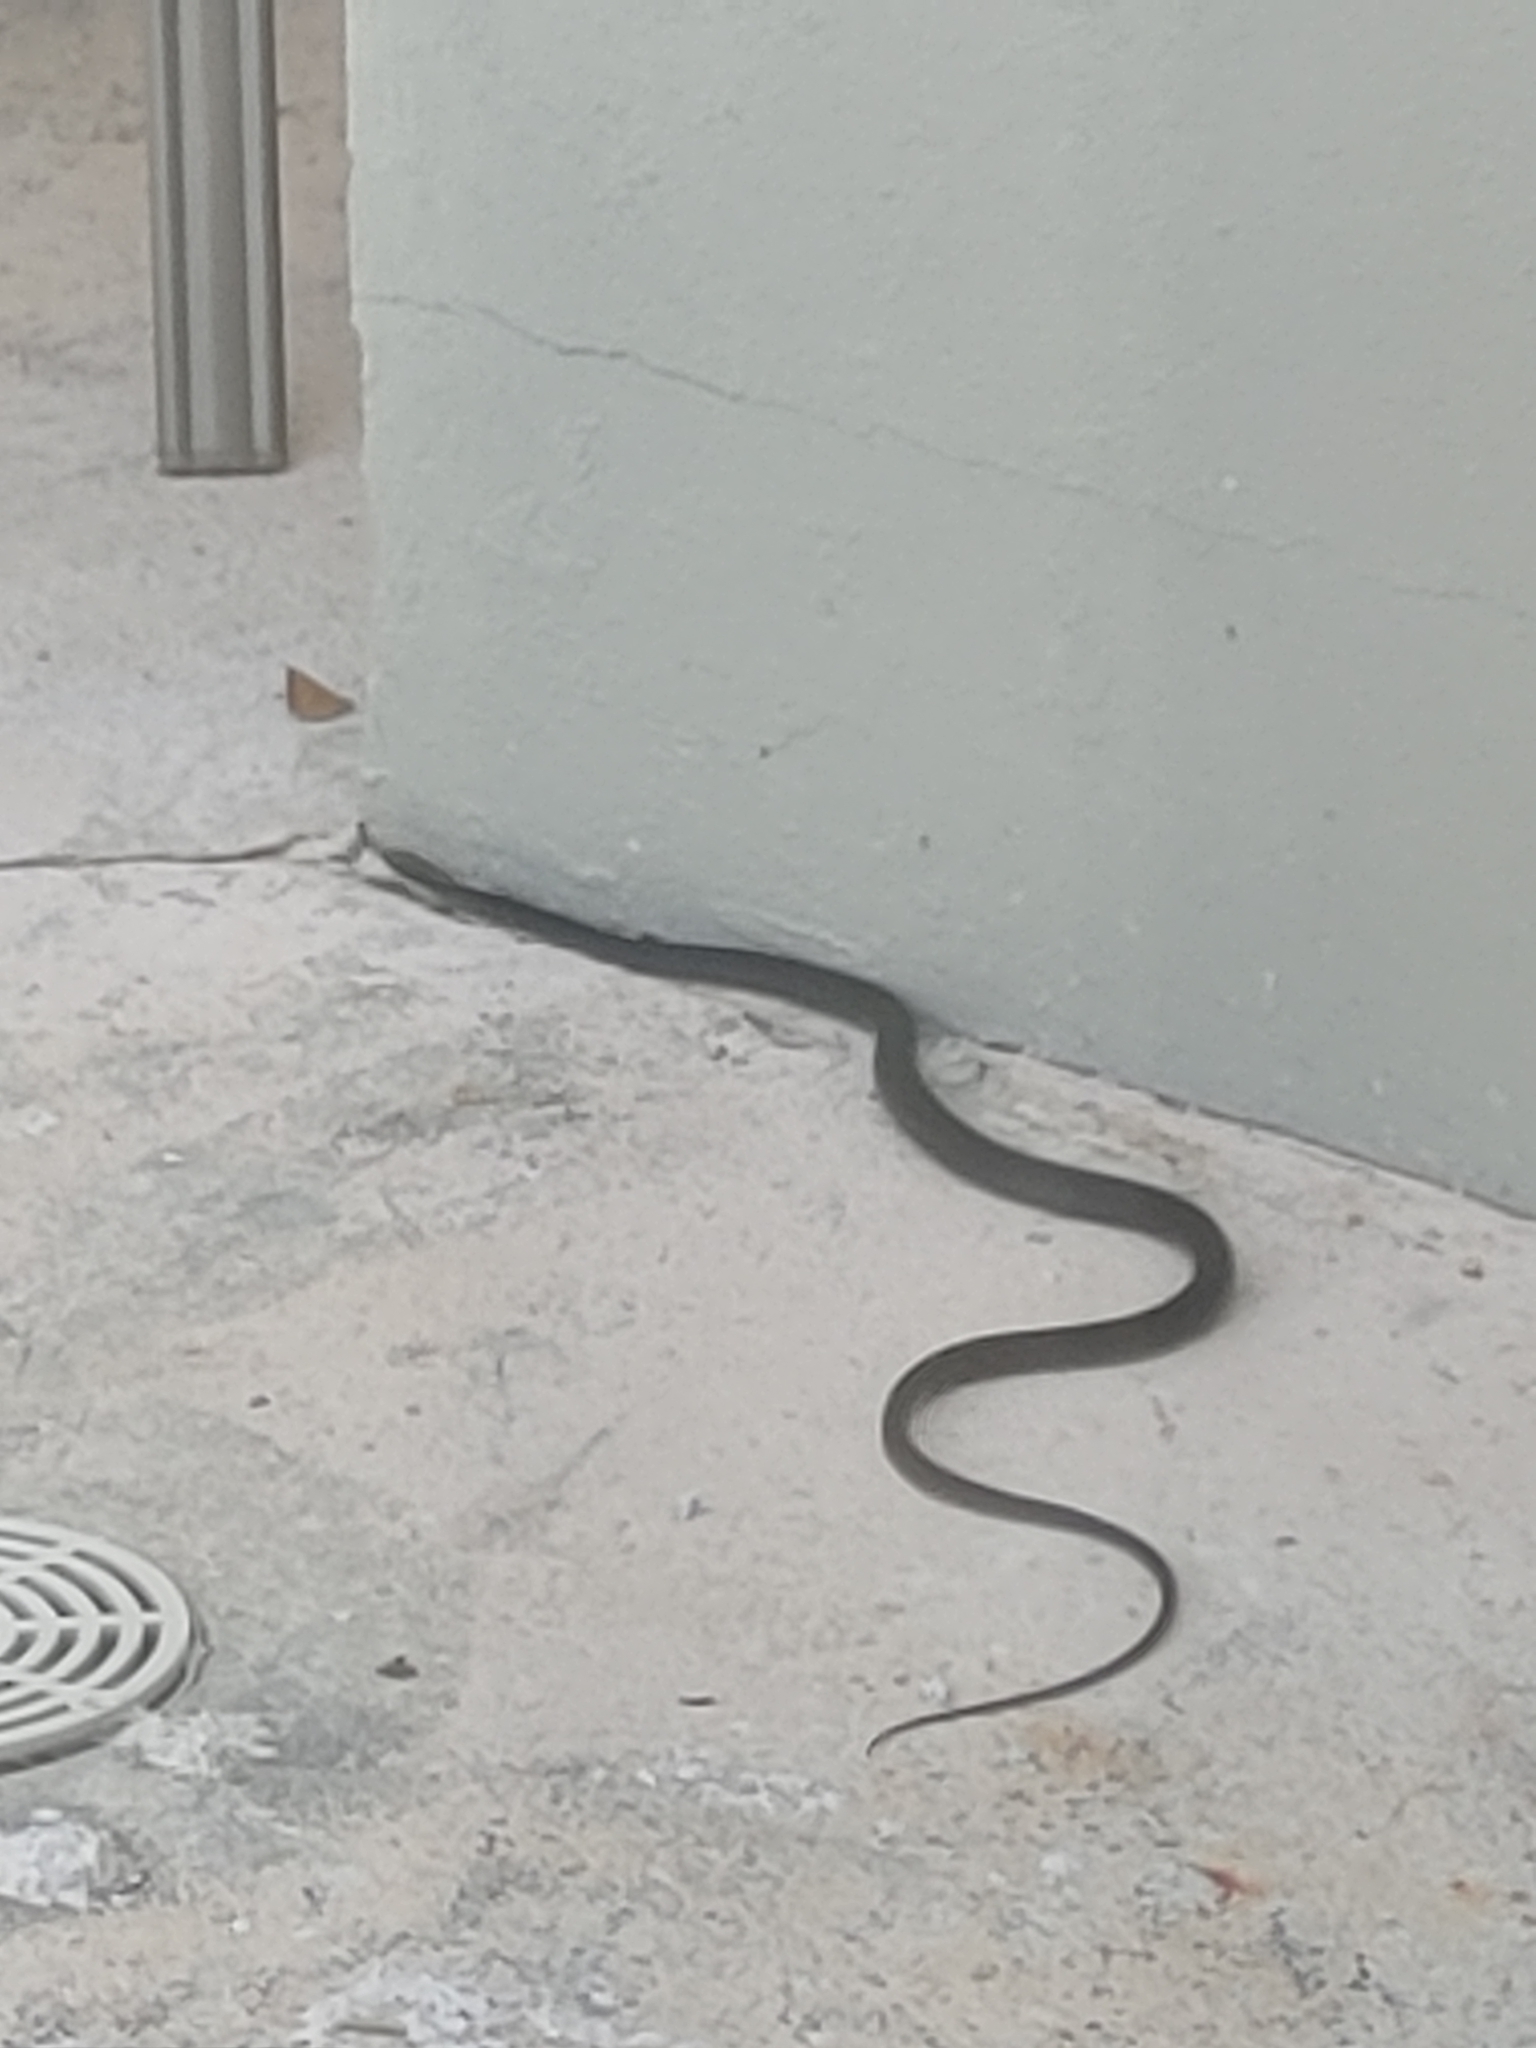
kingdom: Animalia
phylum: Chordata
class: Squamata
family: Colubridae
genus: Coluber
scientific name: Coluber constrictor
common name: Eastern racer
